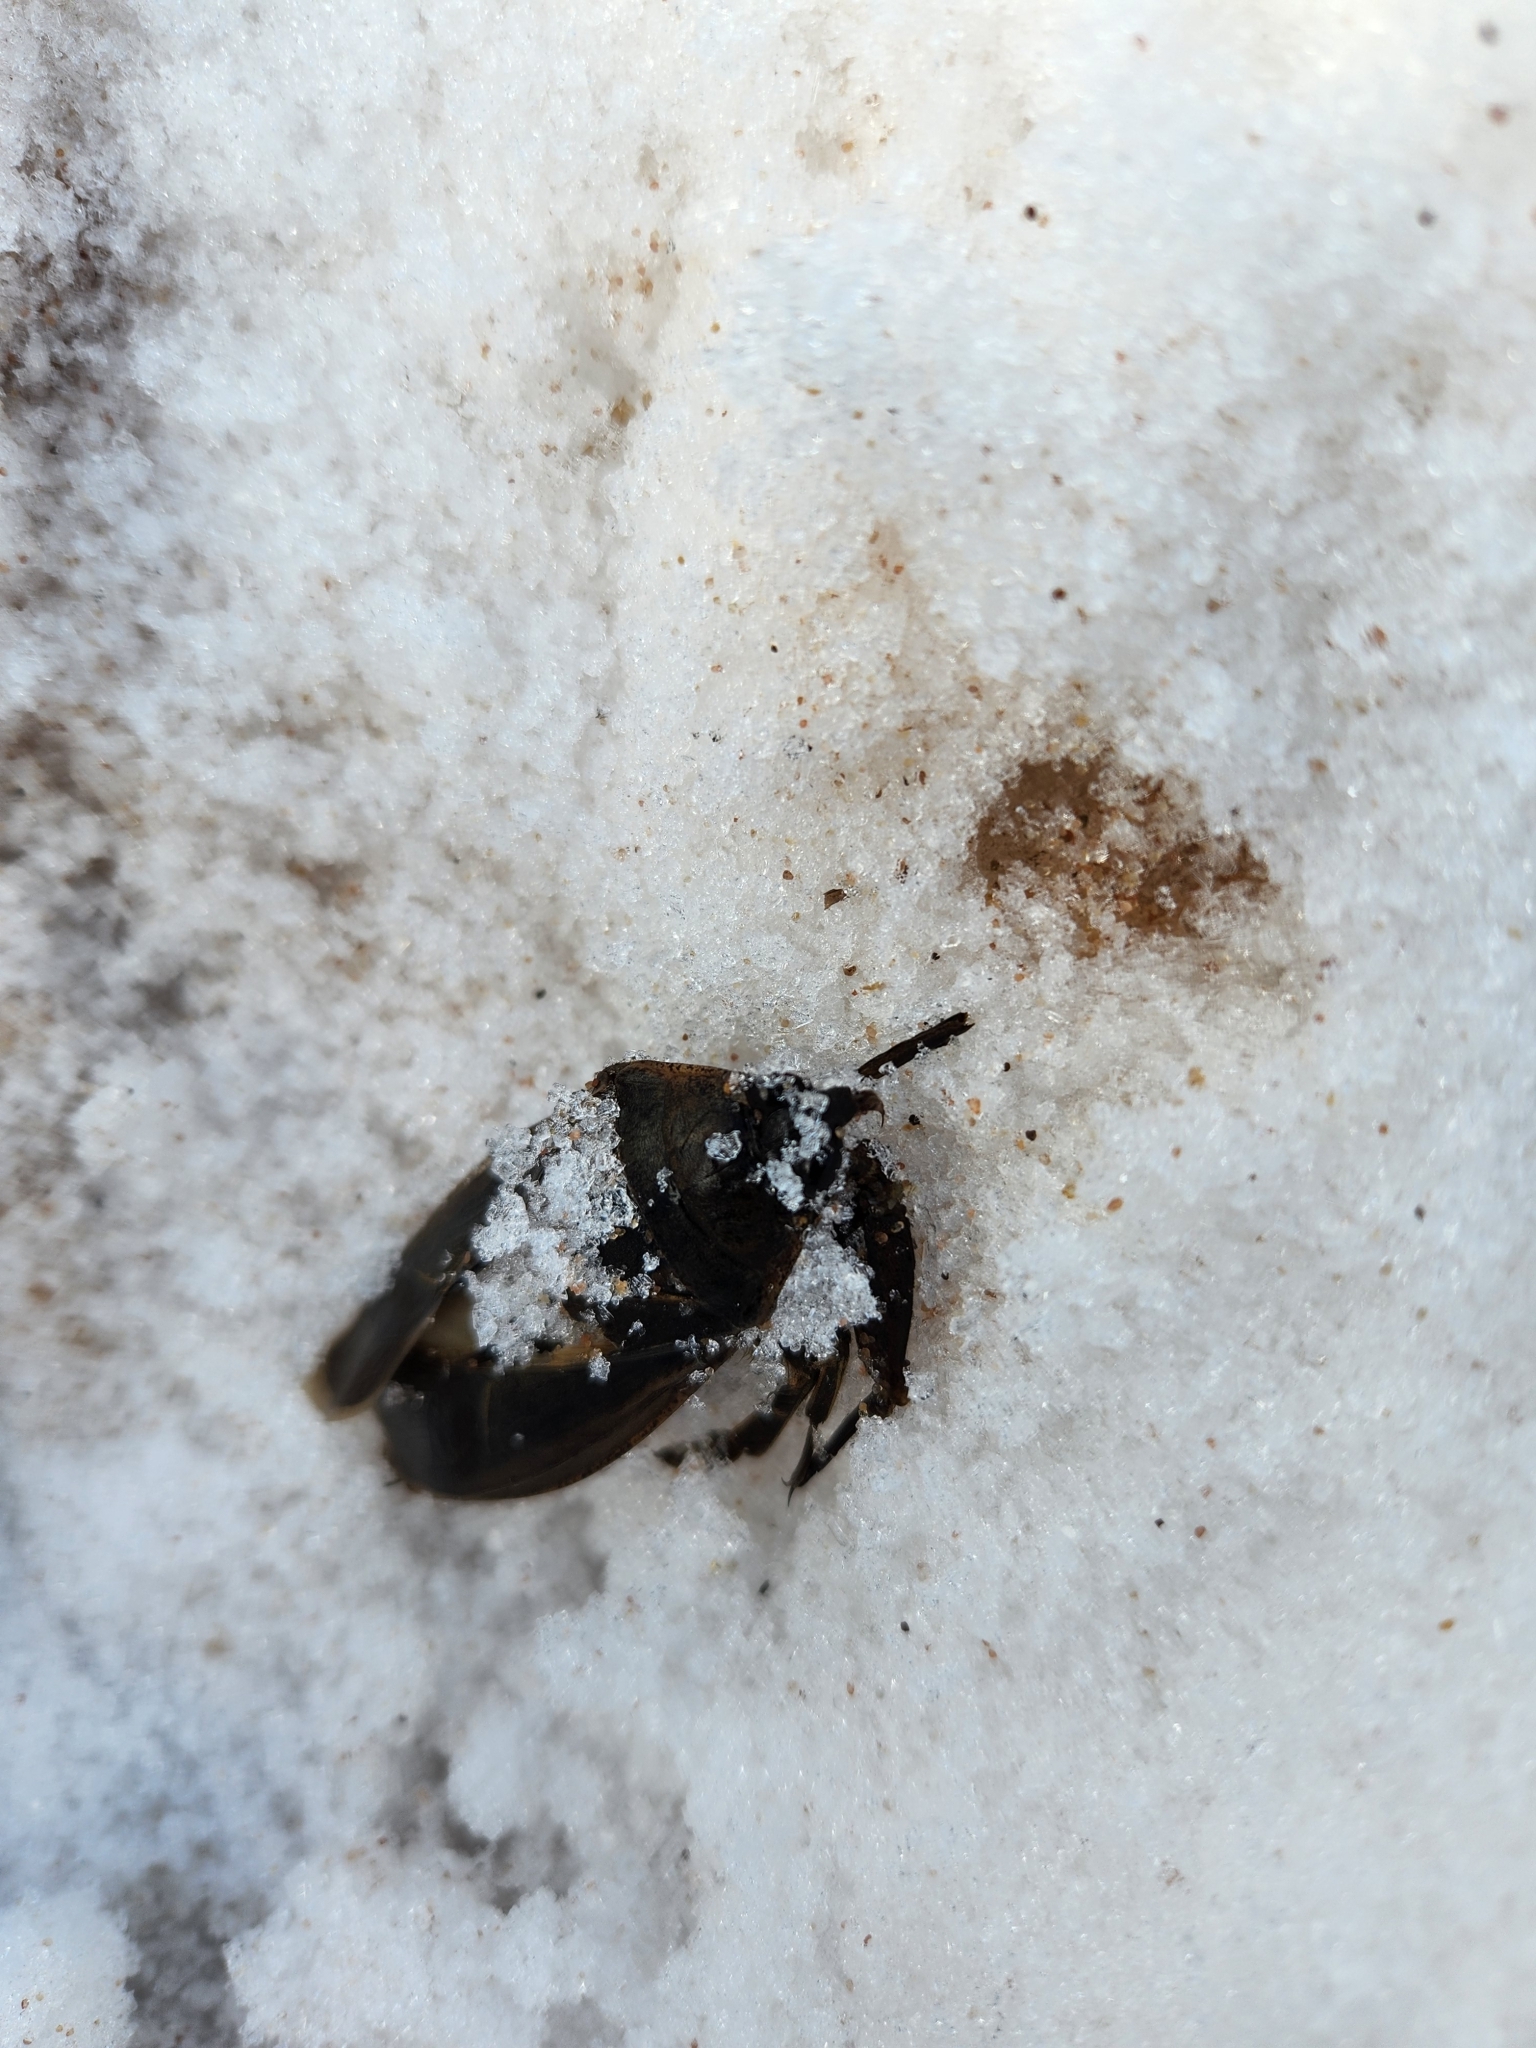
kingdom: Animalia
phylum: Arthropoda
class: Insecta
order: Hemiptera
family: Belostomatidae
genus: Lethocerus
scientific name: Lethocerus americanus
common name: Giant water bug
